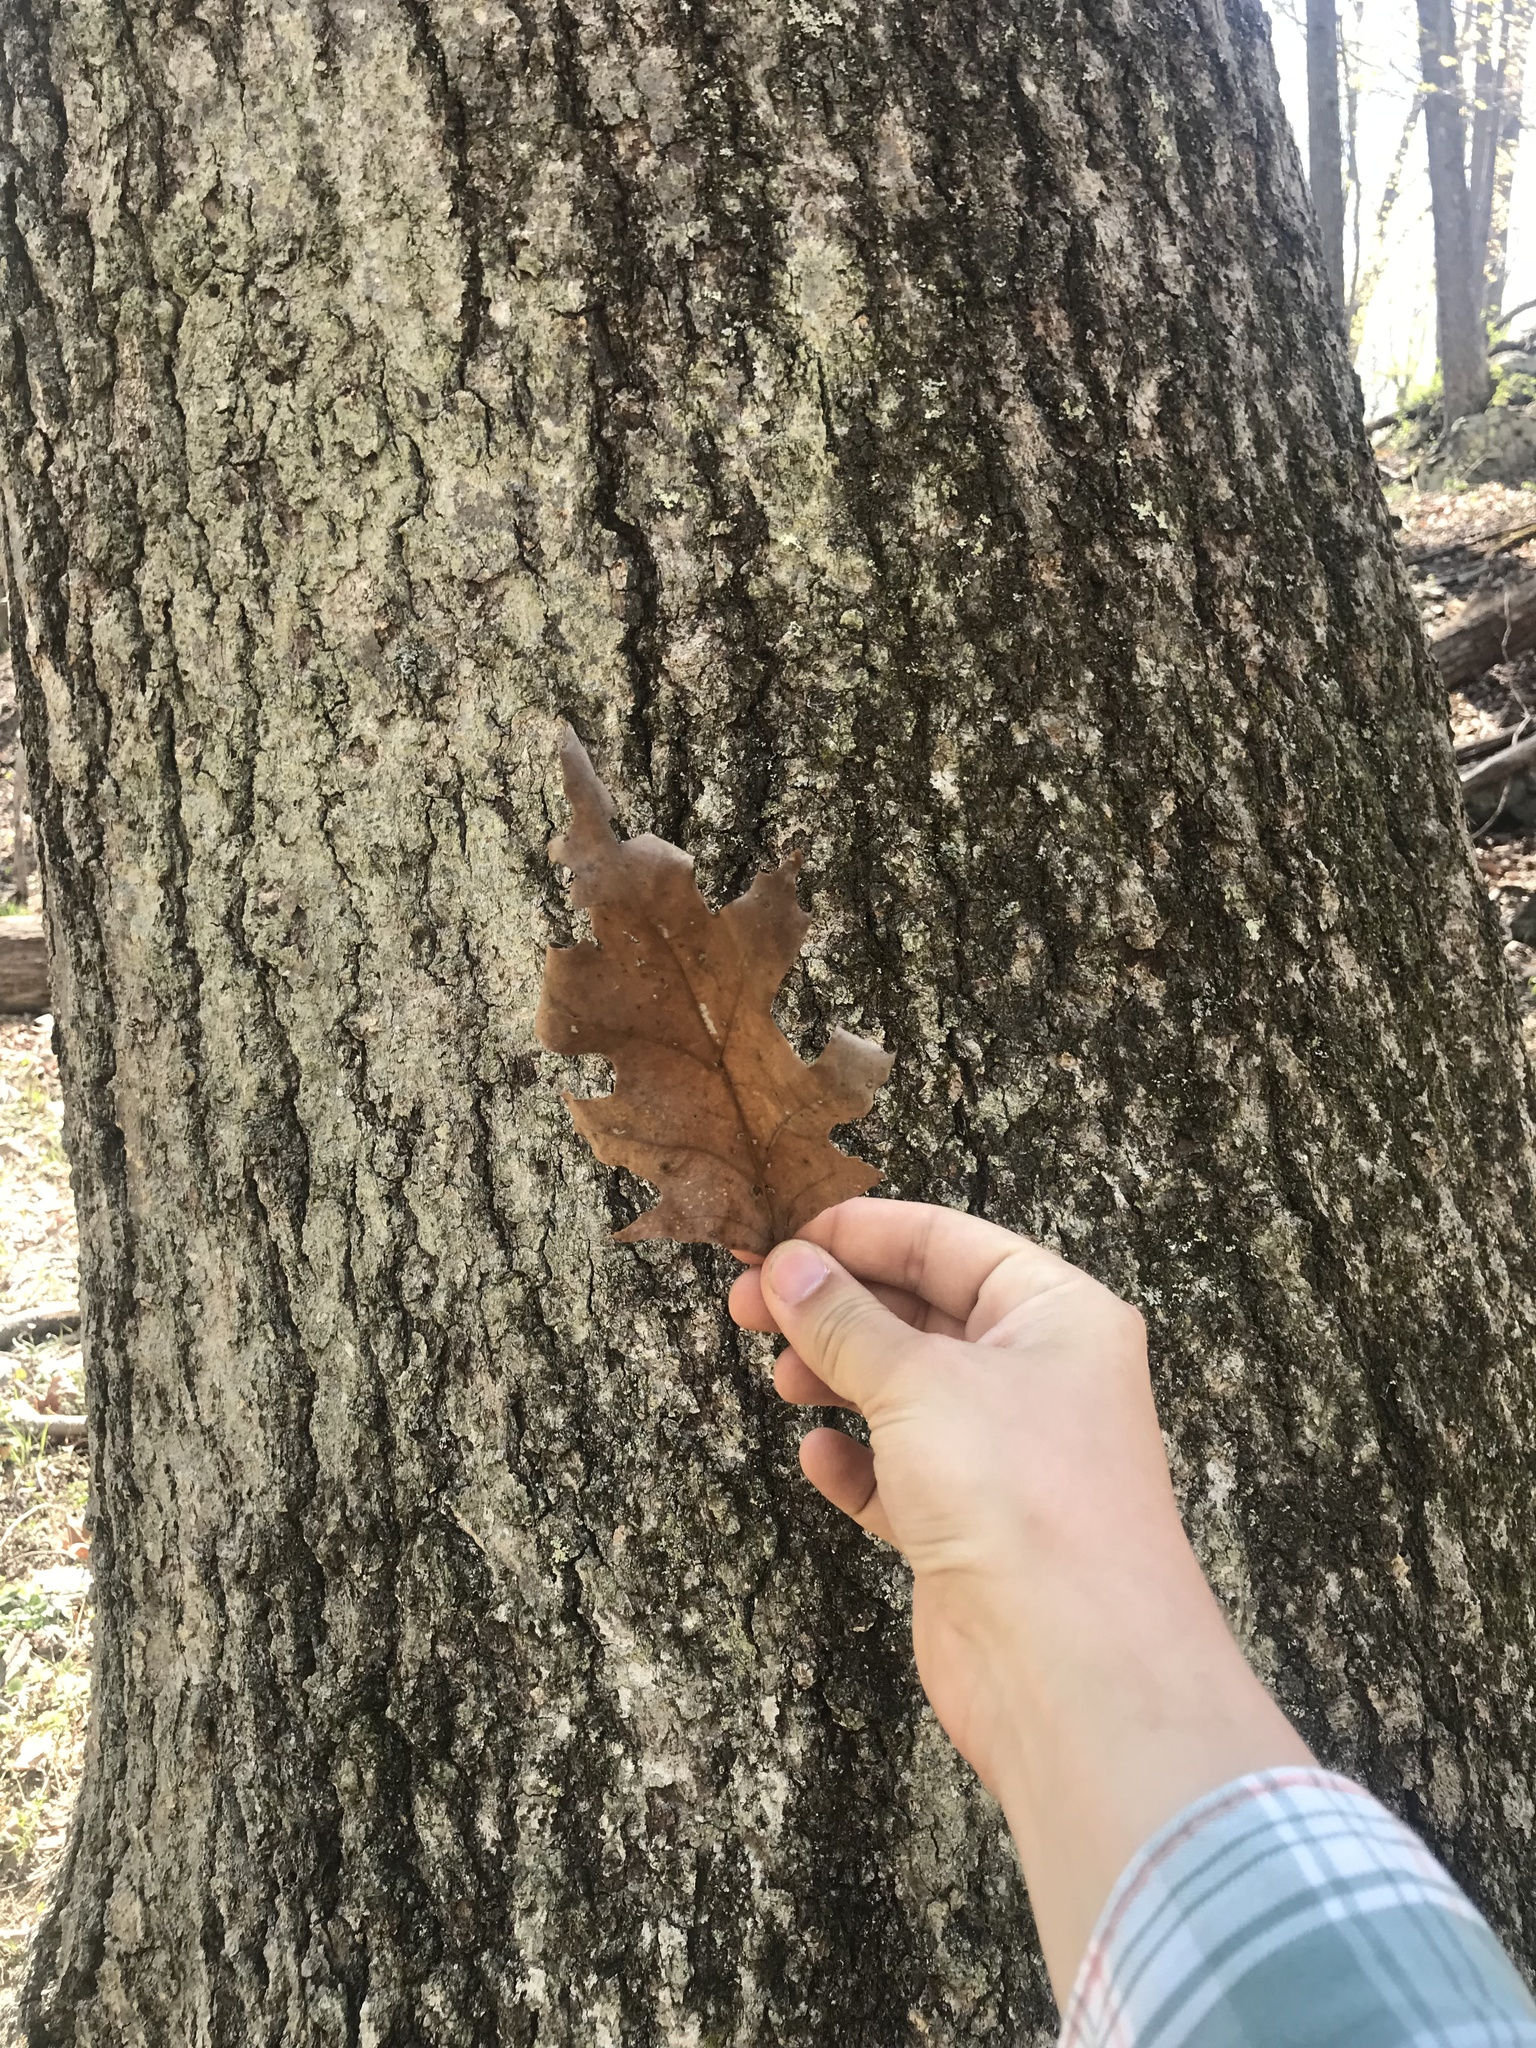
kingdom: Plantae
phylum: Tracheophyta
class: Magnoliopsida
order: Fagales
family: Fagaceae
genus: Quercus
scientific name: Quercus alba
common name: White oak
